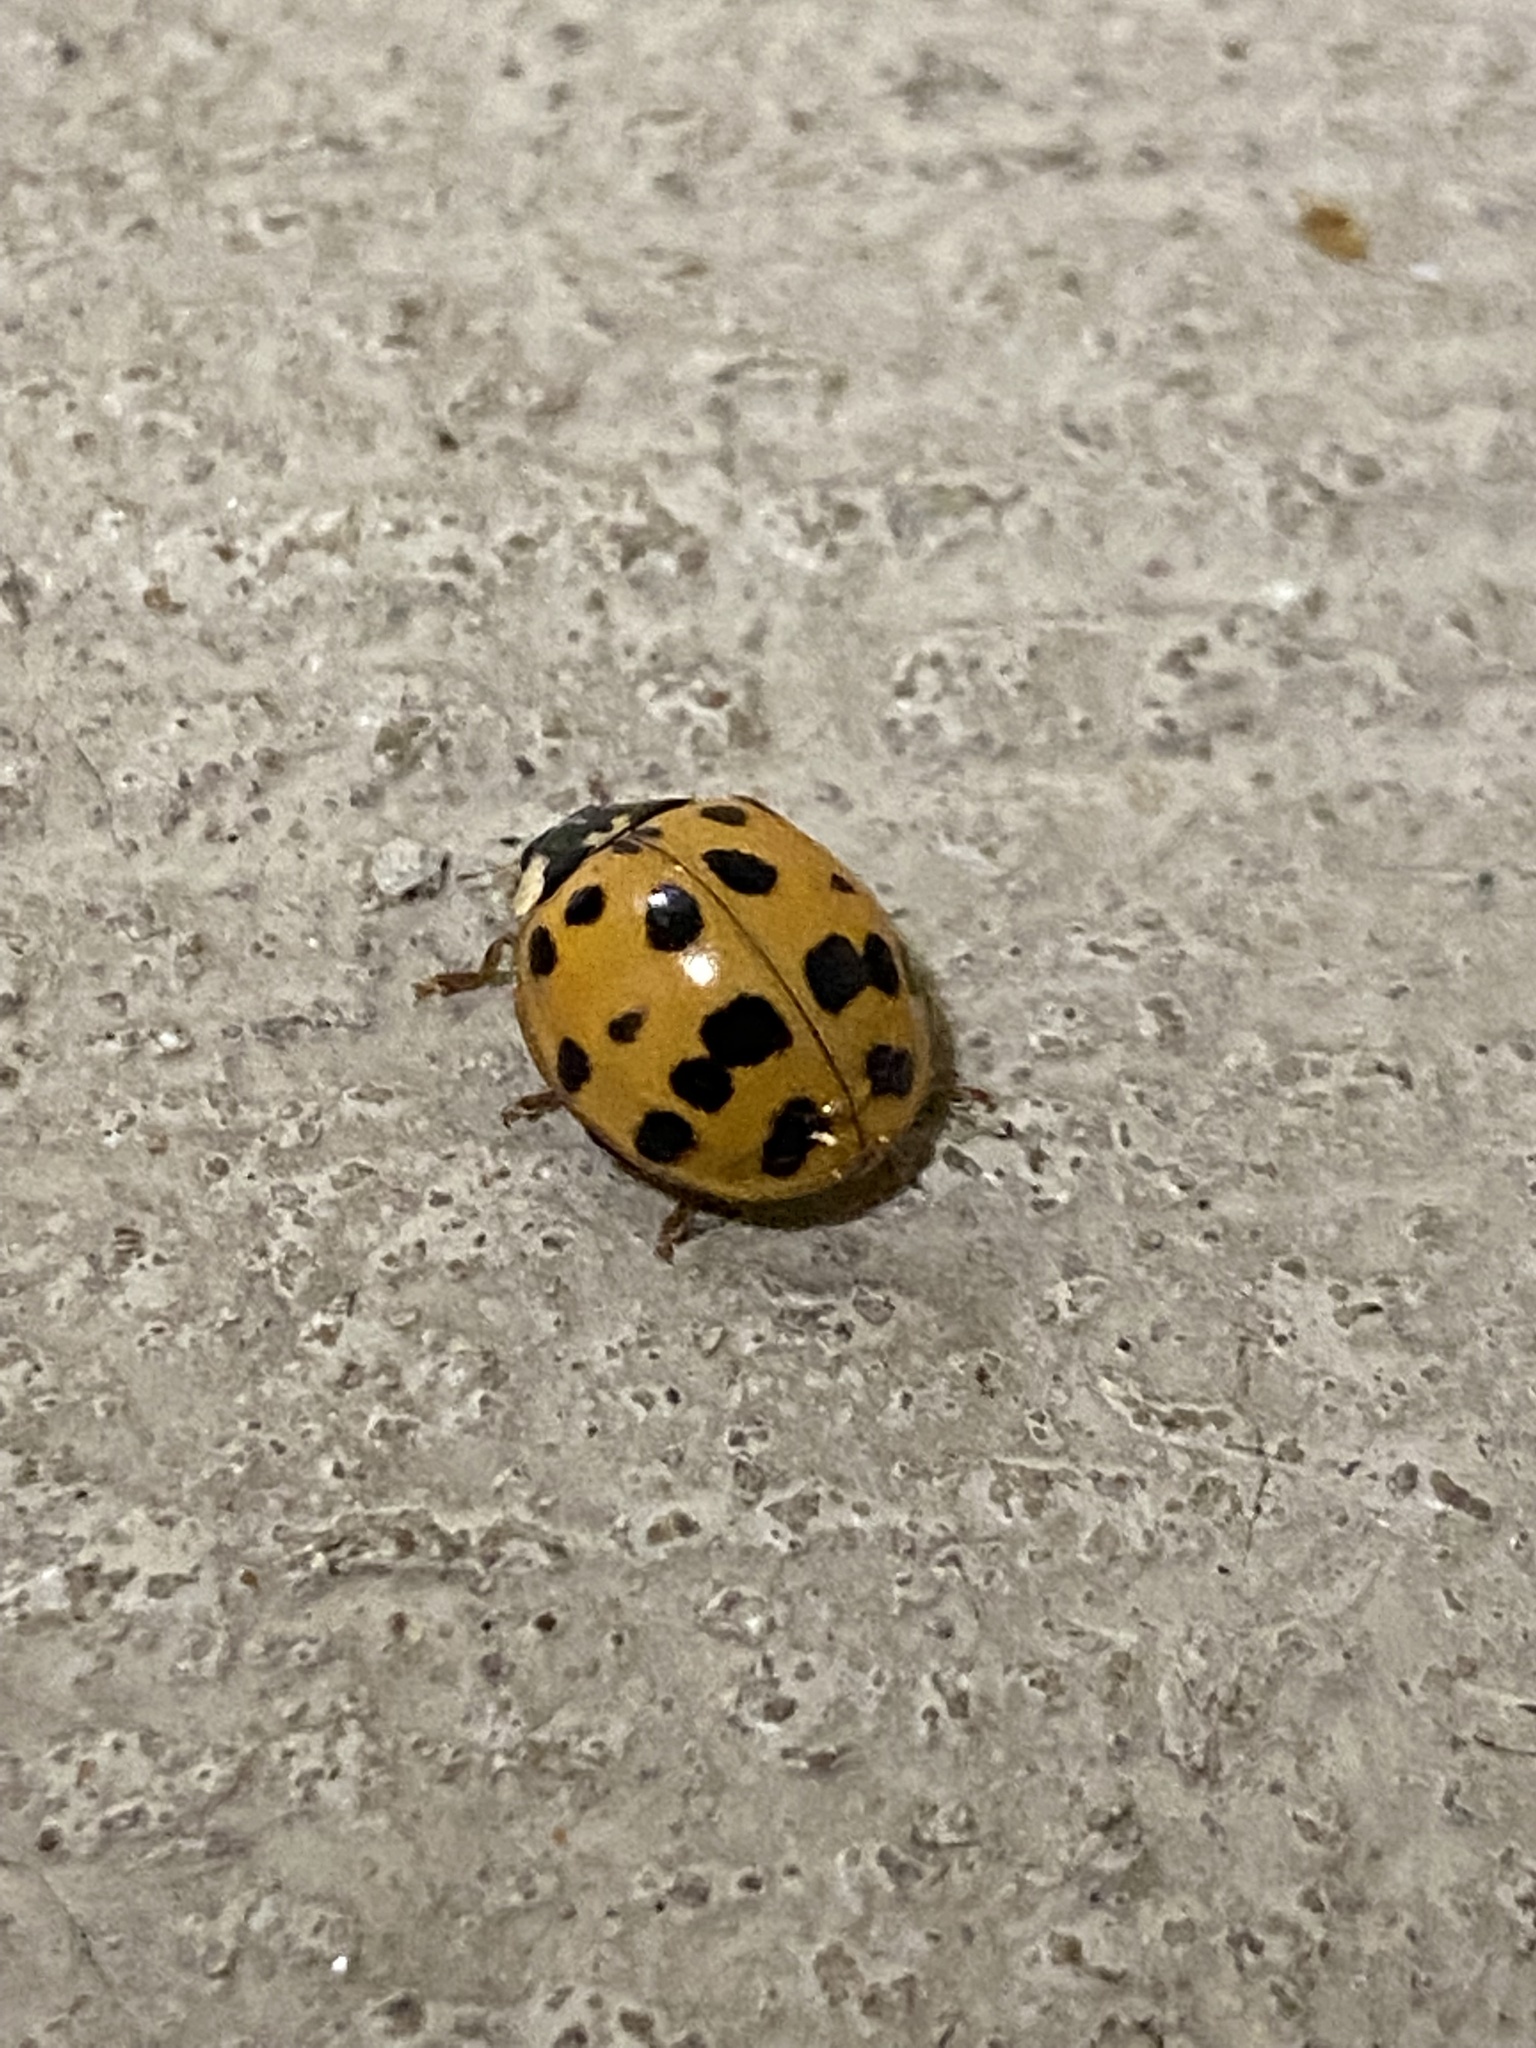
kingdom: Animalia
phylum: Arthropoda
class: Insecta
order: Coleoptera
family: Coccinellidae
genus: Harmonia
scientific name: Harmonia axyridis
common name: Harlequin ladybird
